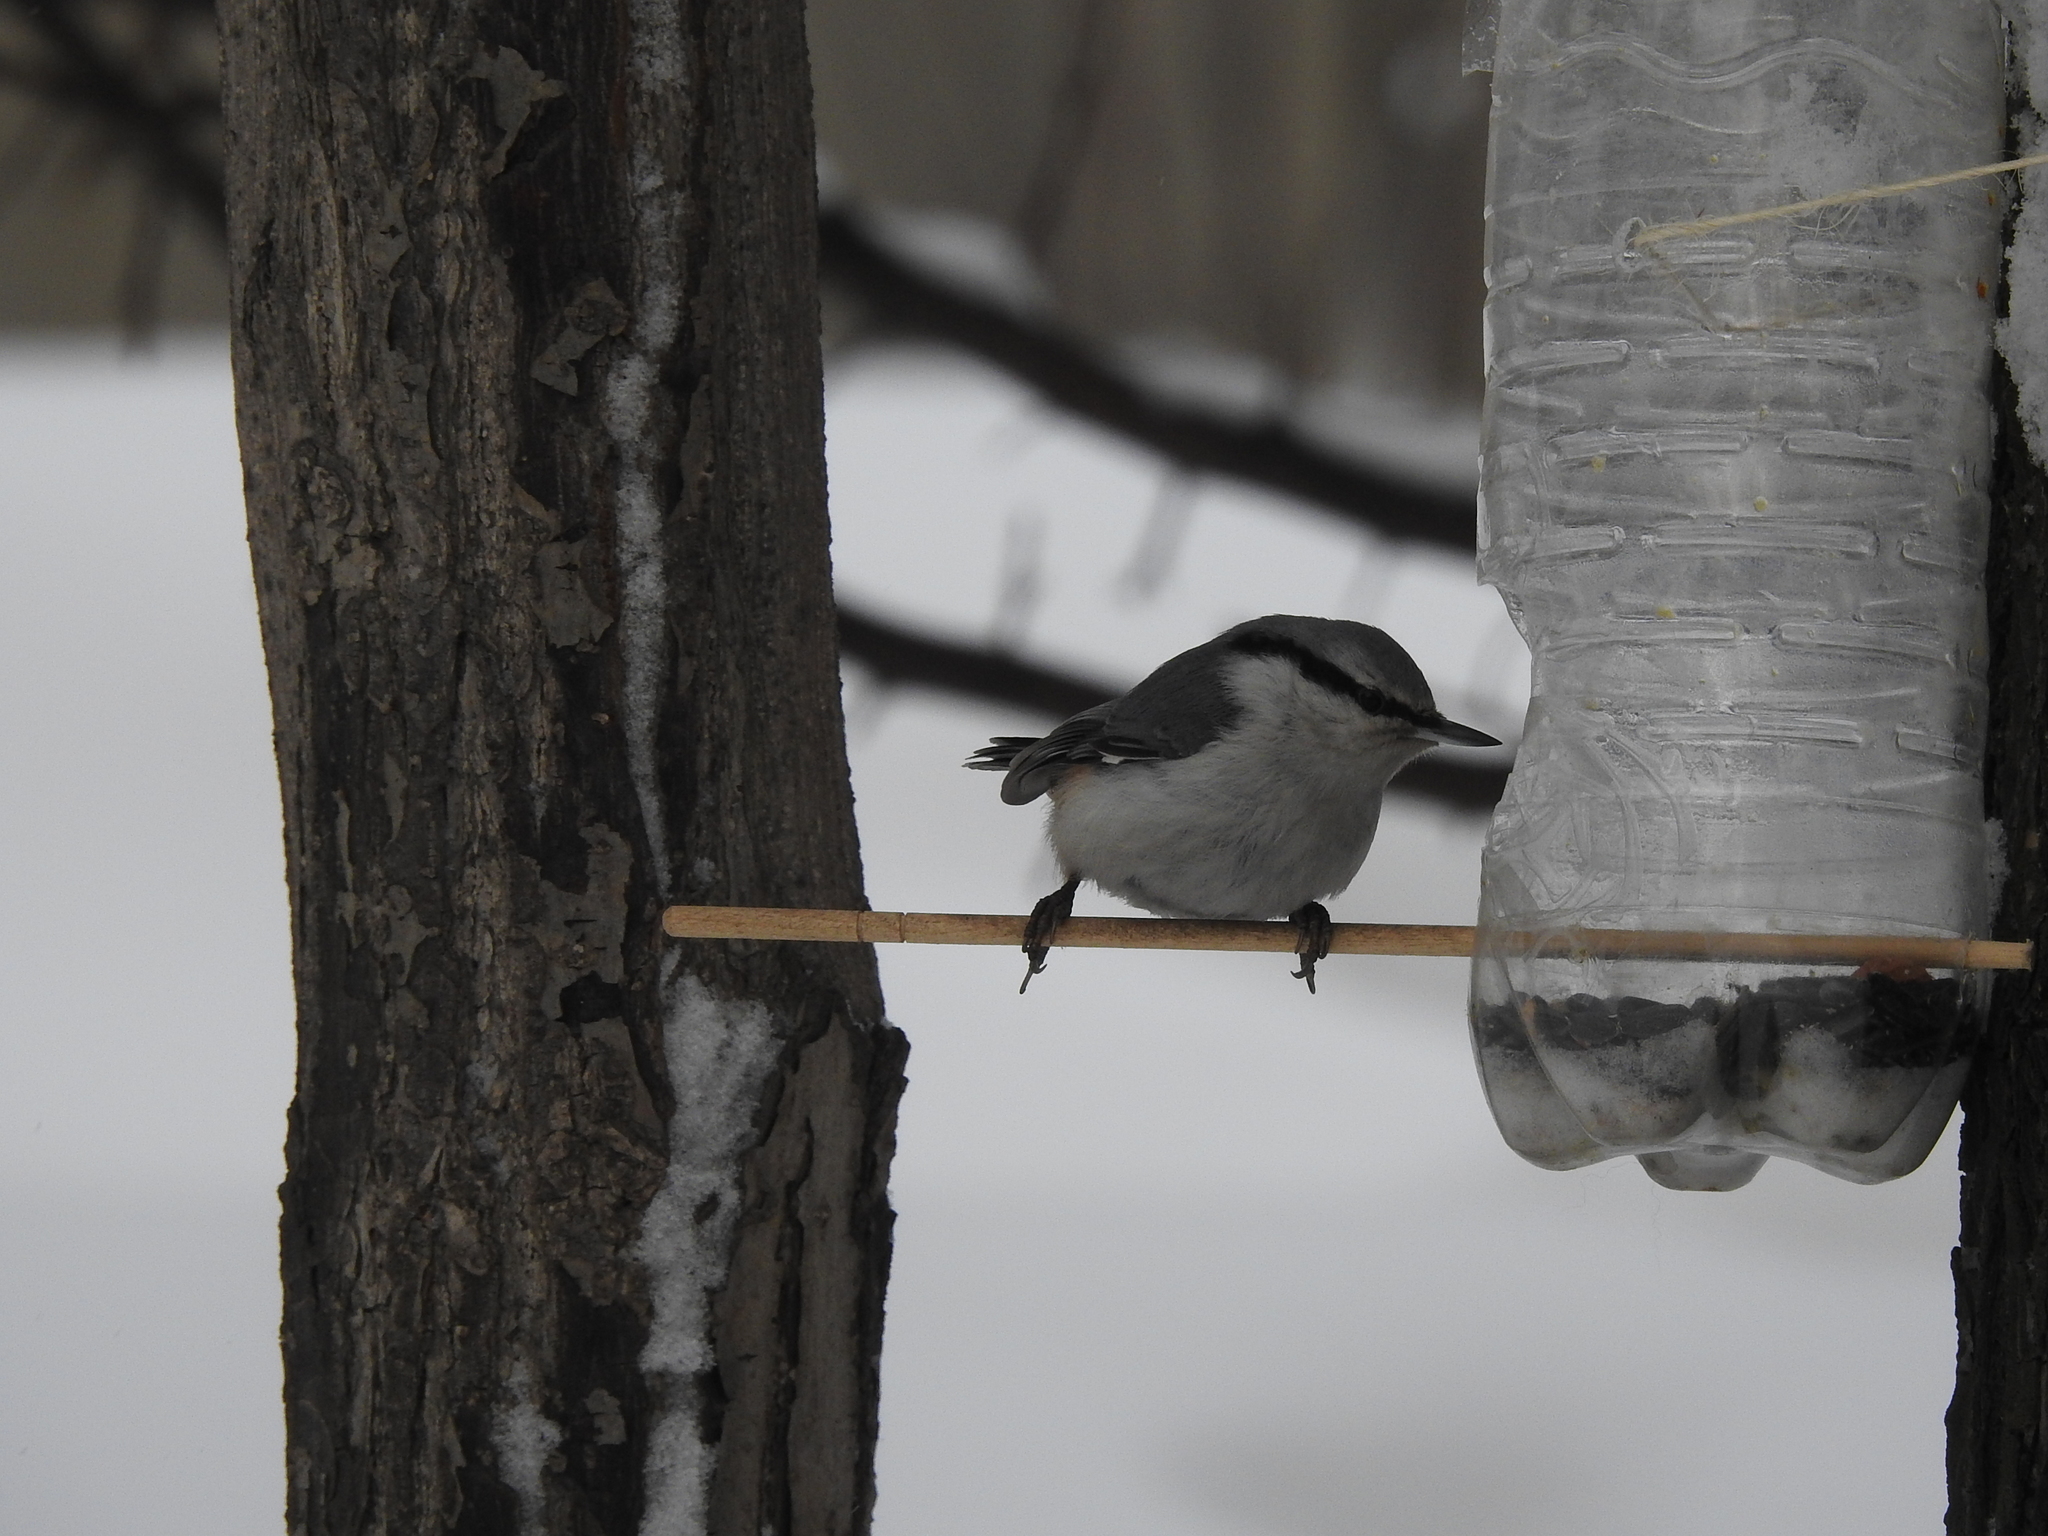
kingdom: Animalia
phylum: Chordata
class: Aves
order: Passeriformes
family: Sittidae
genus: Sitta
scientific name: Sitta europaea
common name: Eurasian nuthatch
